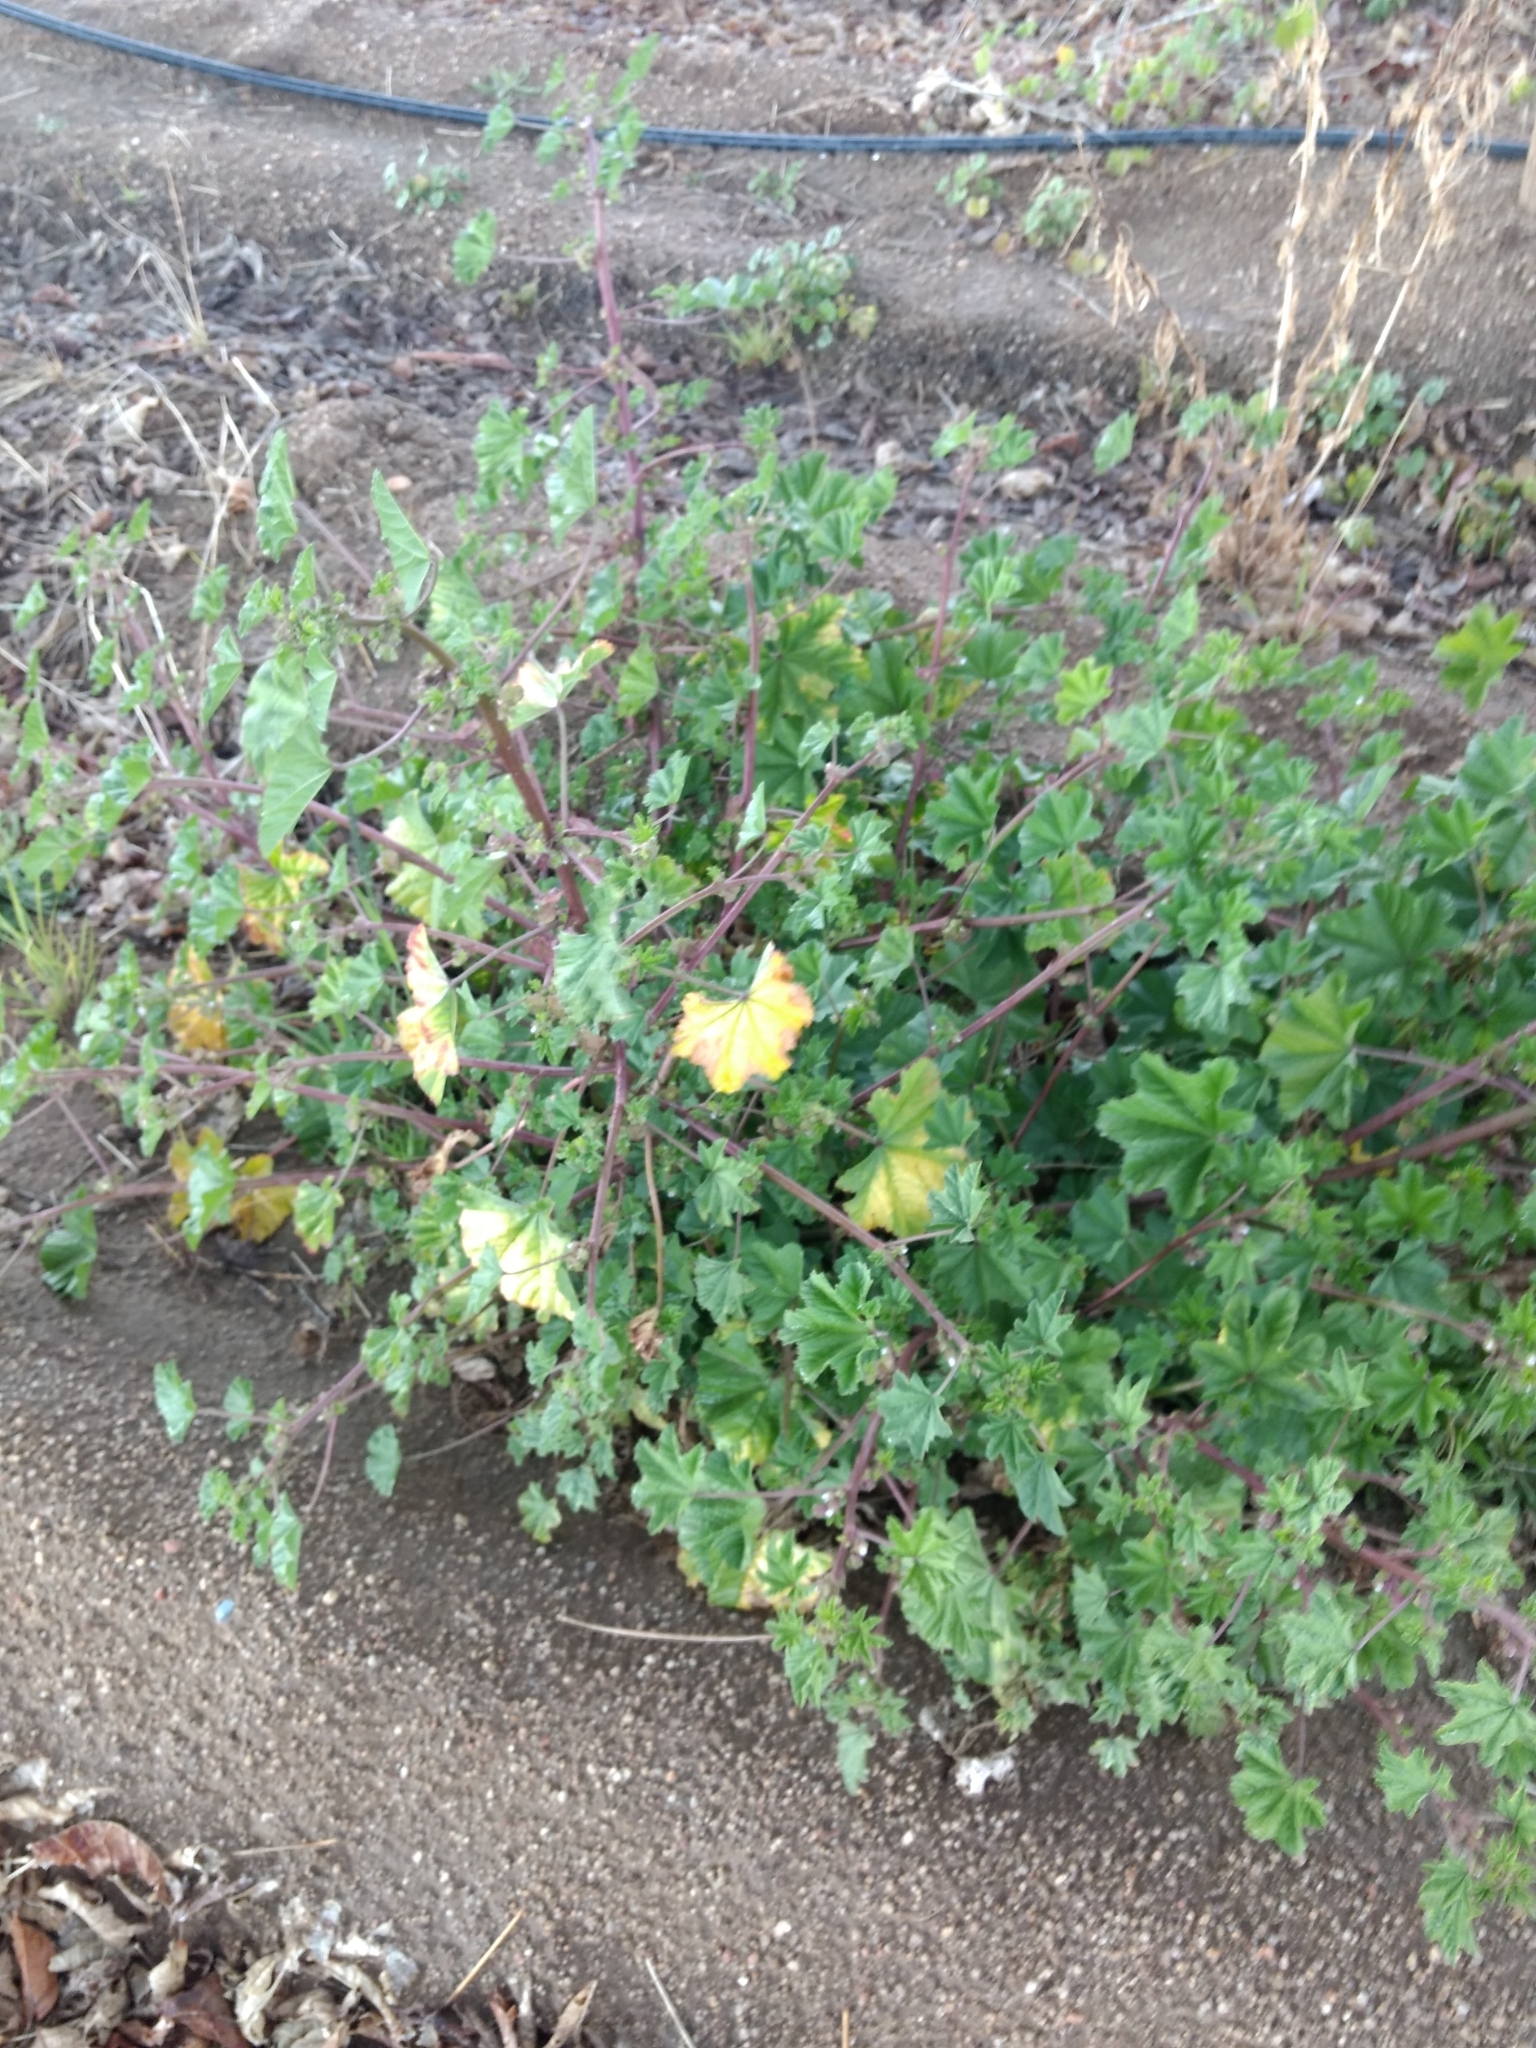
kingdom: Plantae
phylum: Tracheophyta
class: Magnoliopsida
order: Malvales
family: Malvaceae
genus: Malva
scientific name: Malva parviflora
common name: Least mallow
